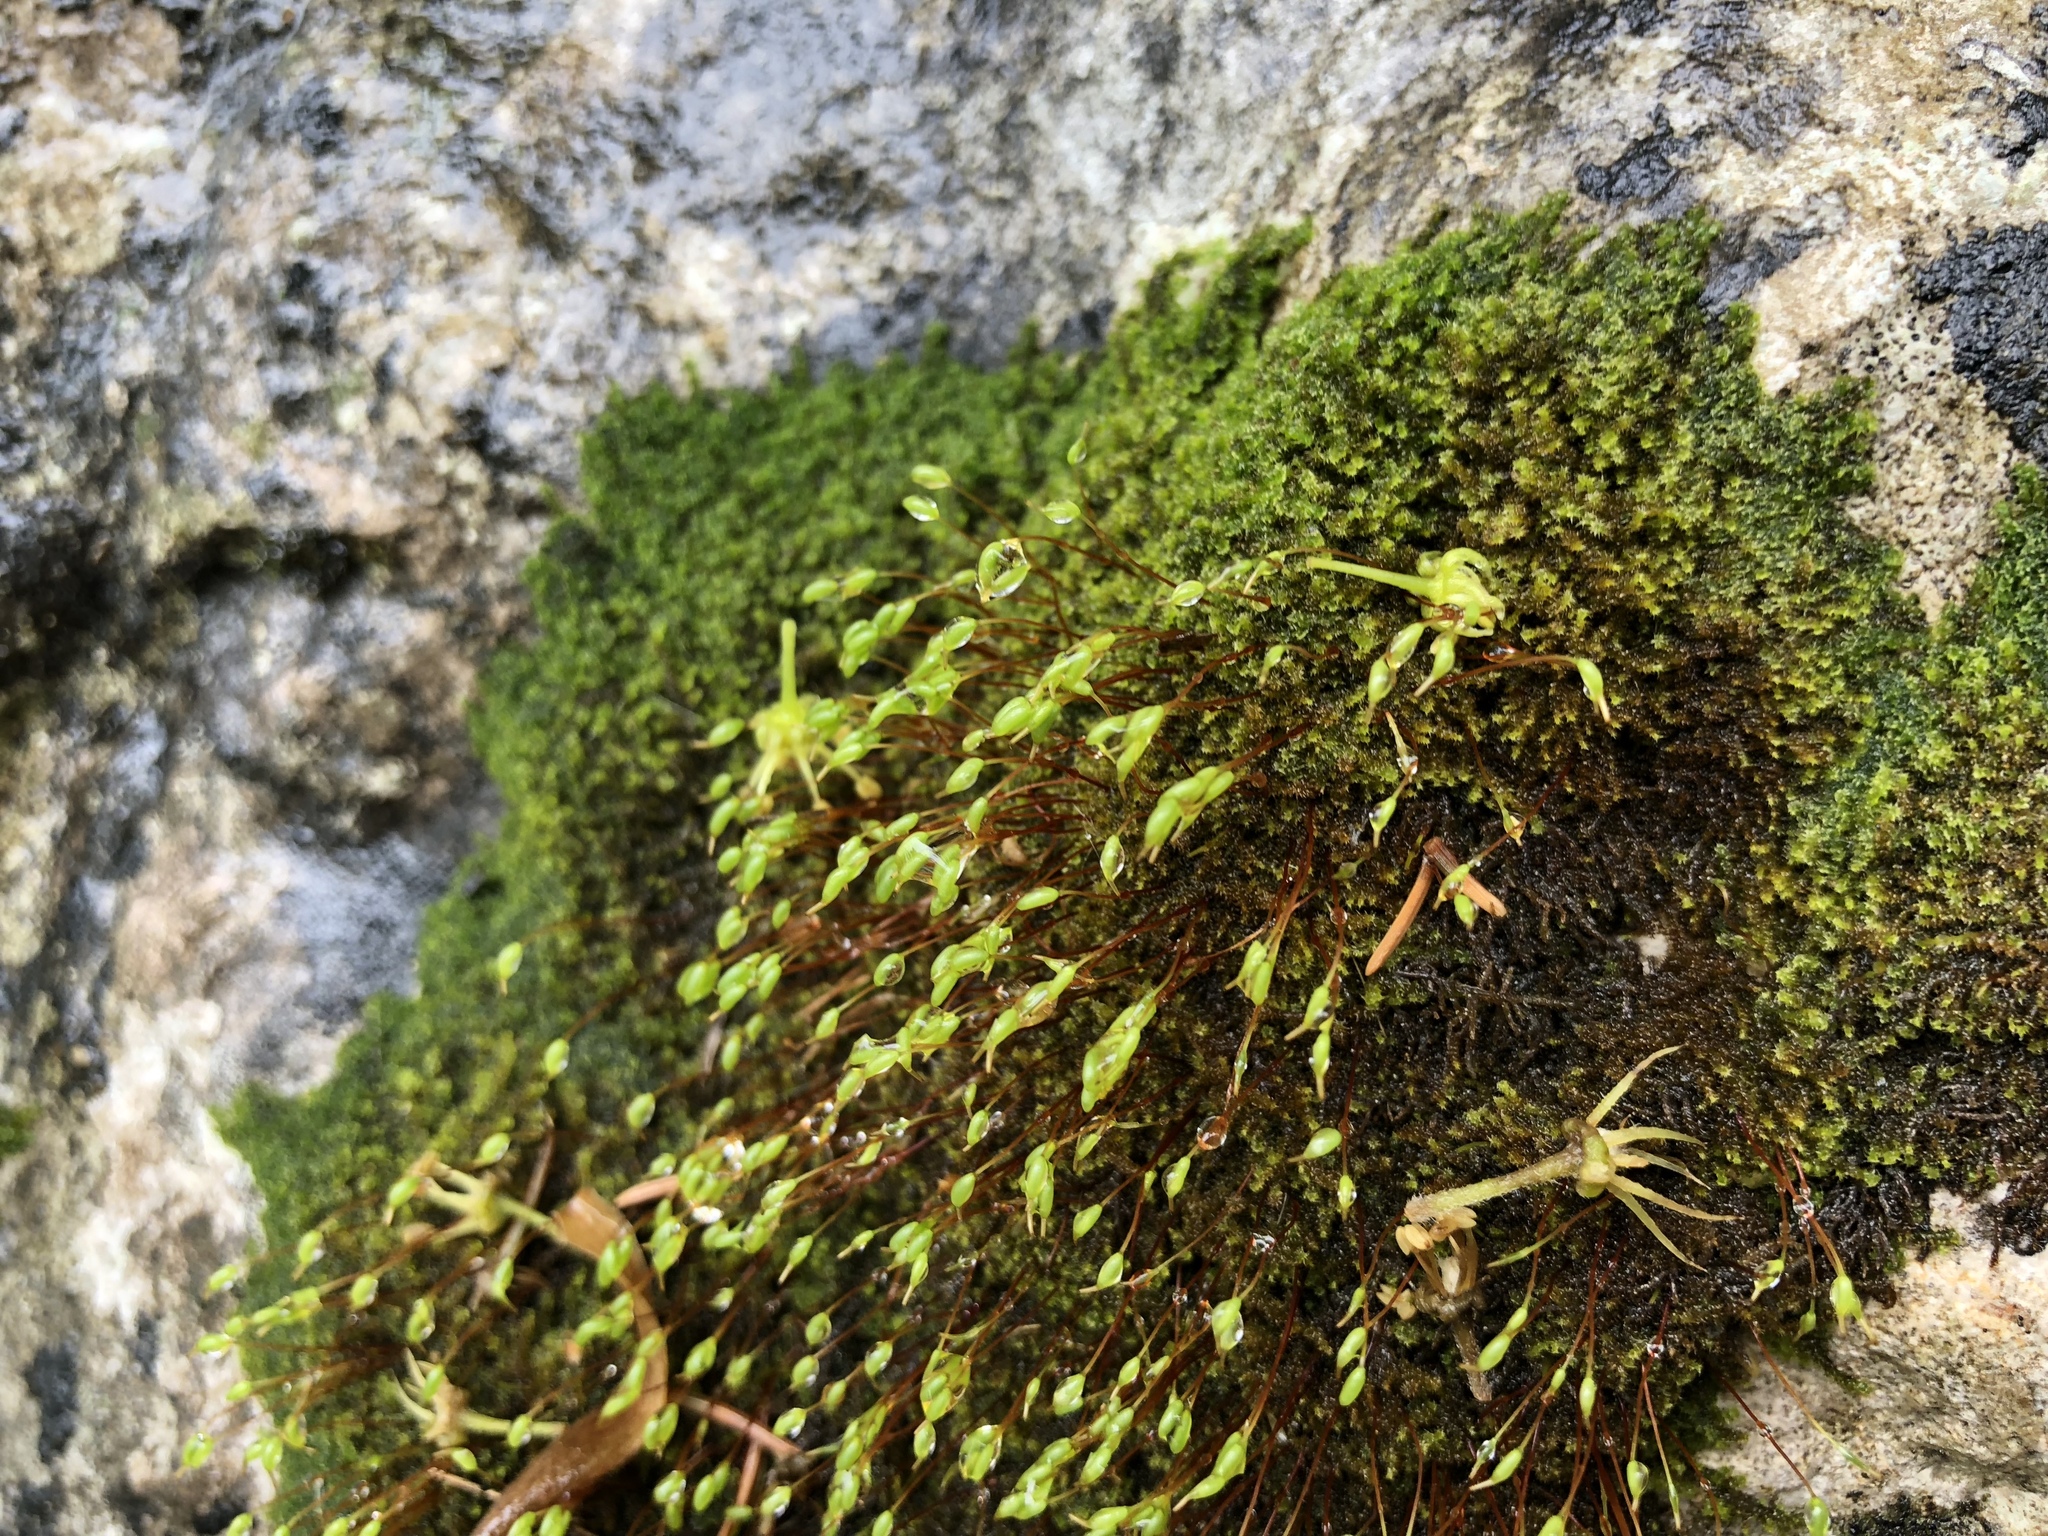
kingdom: Plantae
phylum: Bryophyta
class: Bryopsida
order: Hypnales
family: Amblystegiaceae
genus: Campylophyllum
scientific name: Campylophyllum halleri
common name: Haller's fine wet moss
